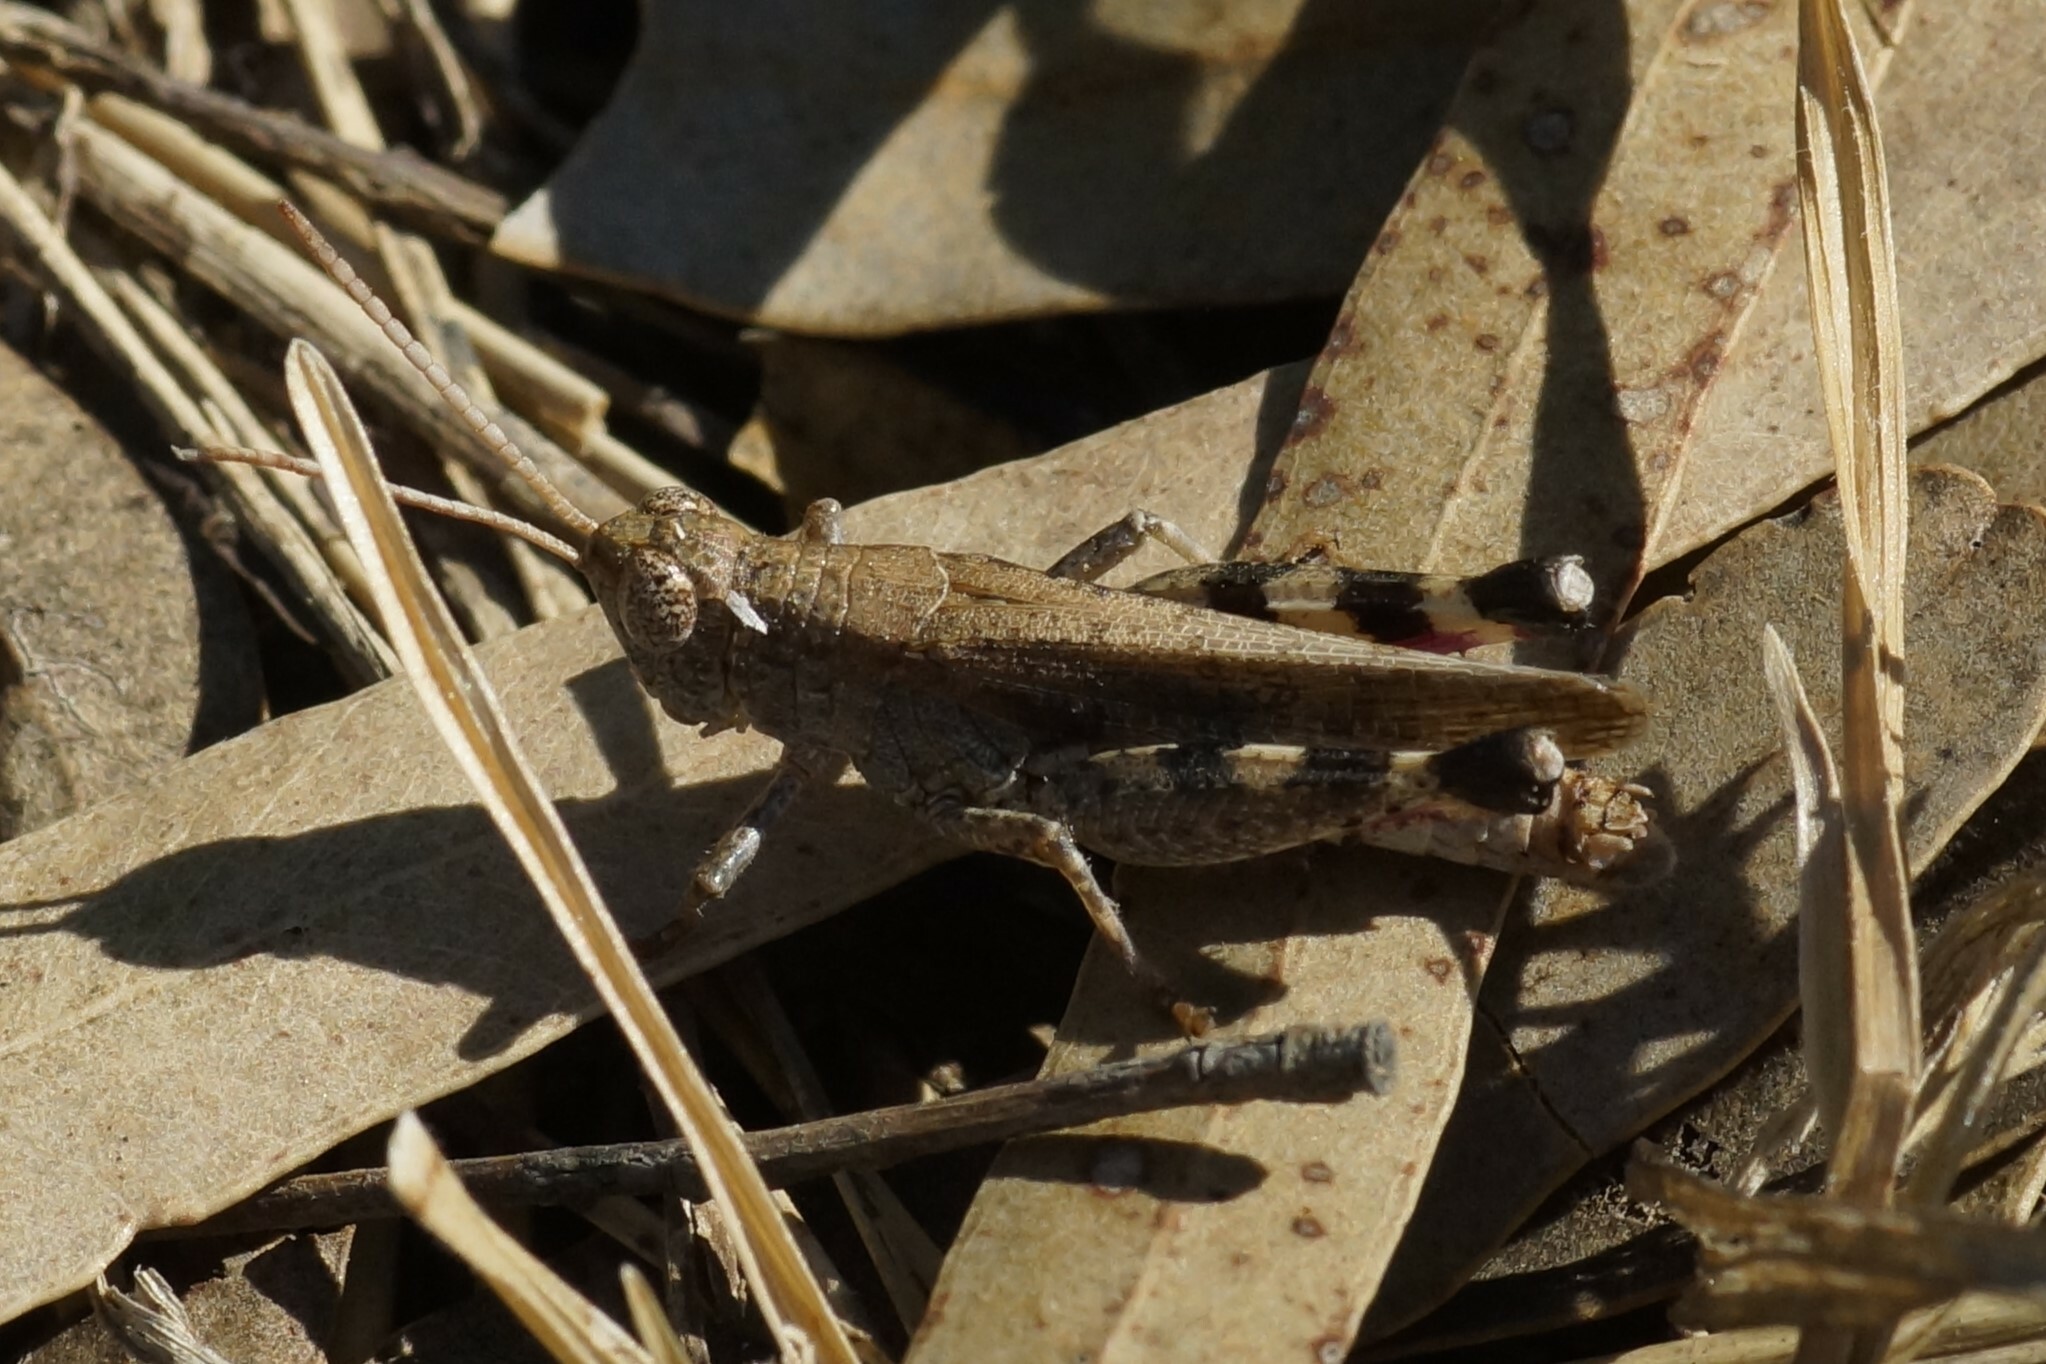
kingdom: Animalia
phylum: Arthropoda
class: Insecta
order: Orthoptera
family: Acrididae
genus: Peakesia
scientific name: Peakesia vitripennis
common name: Plain peakesia
